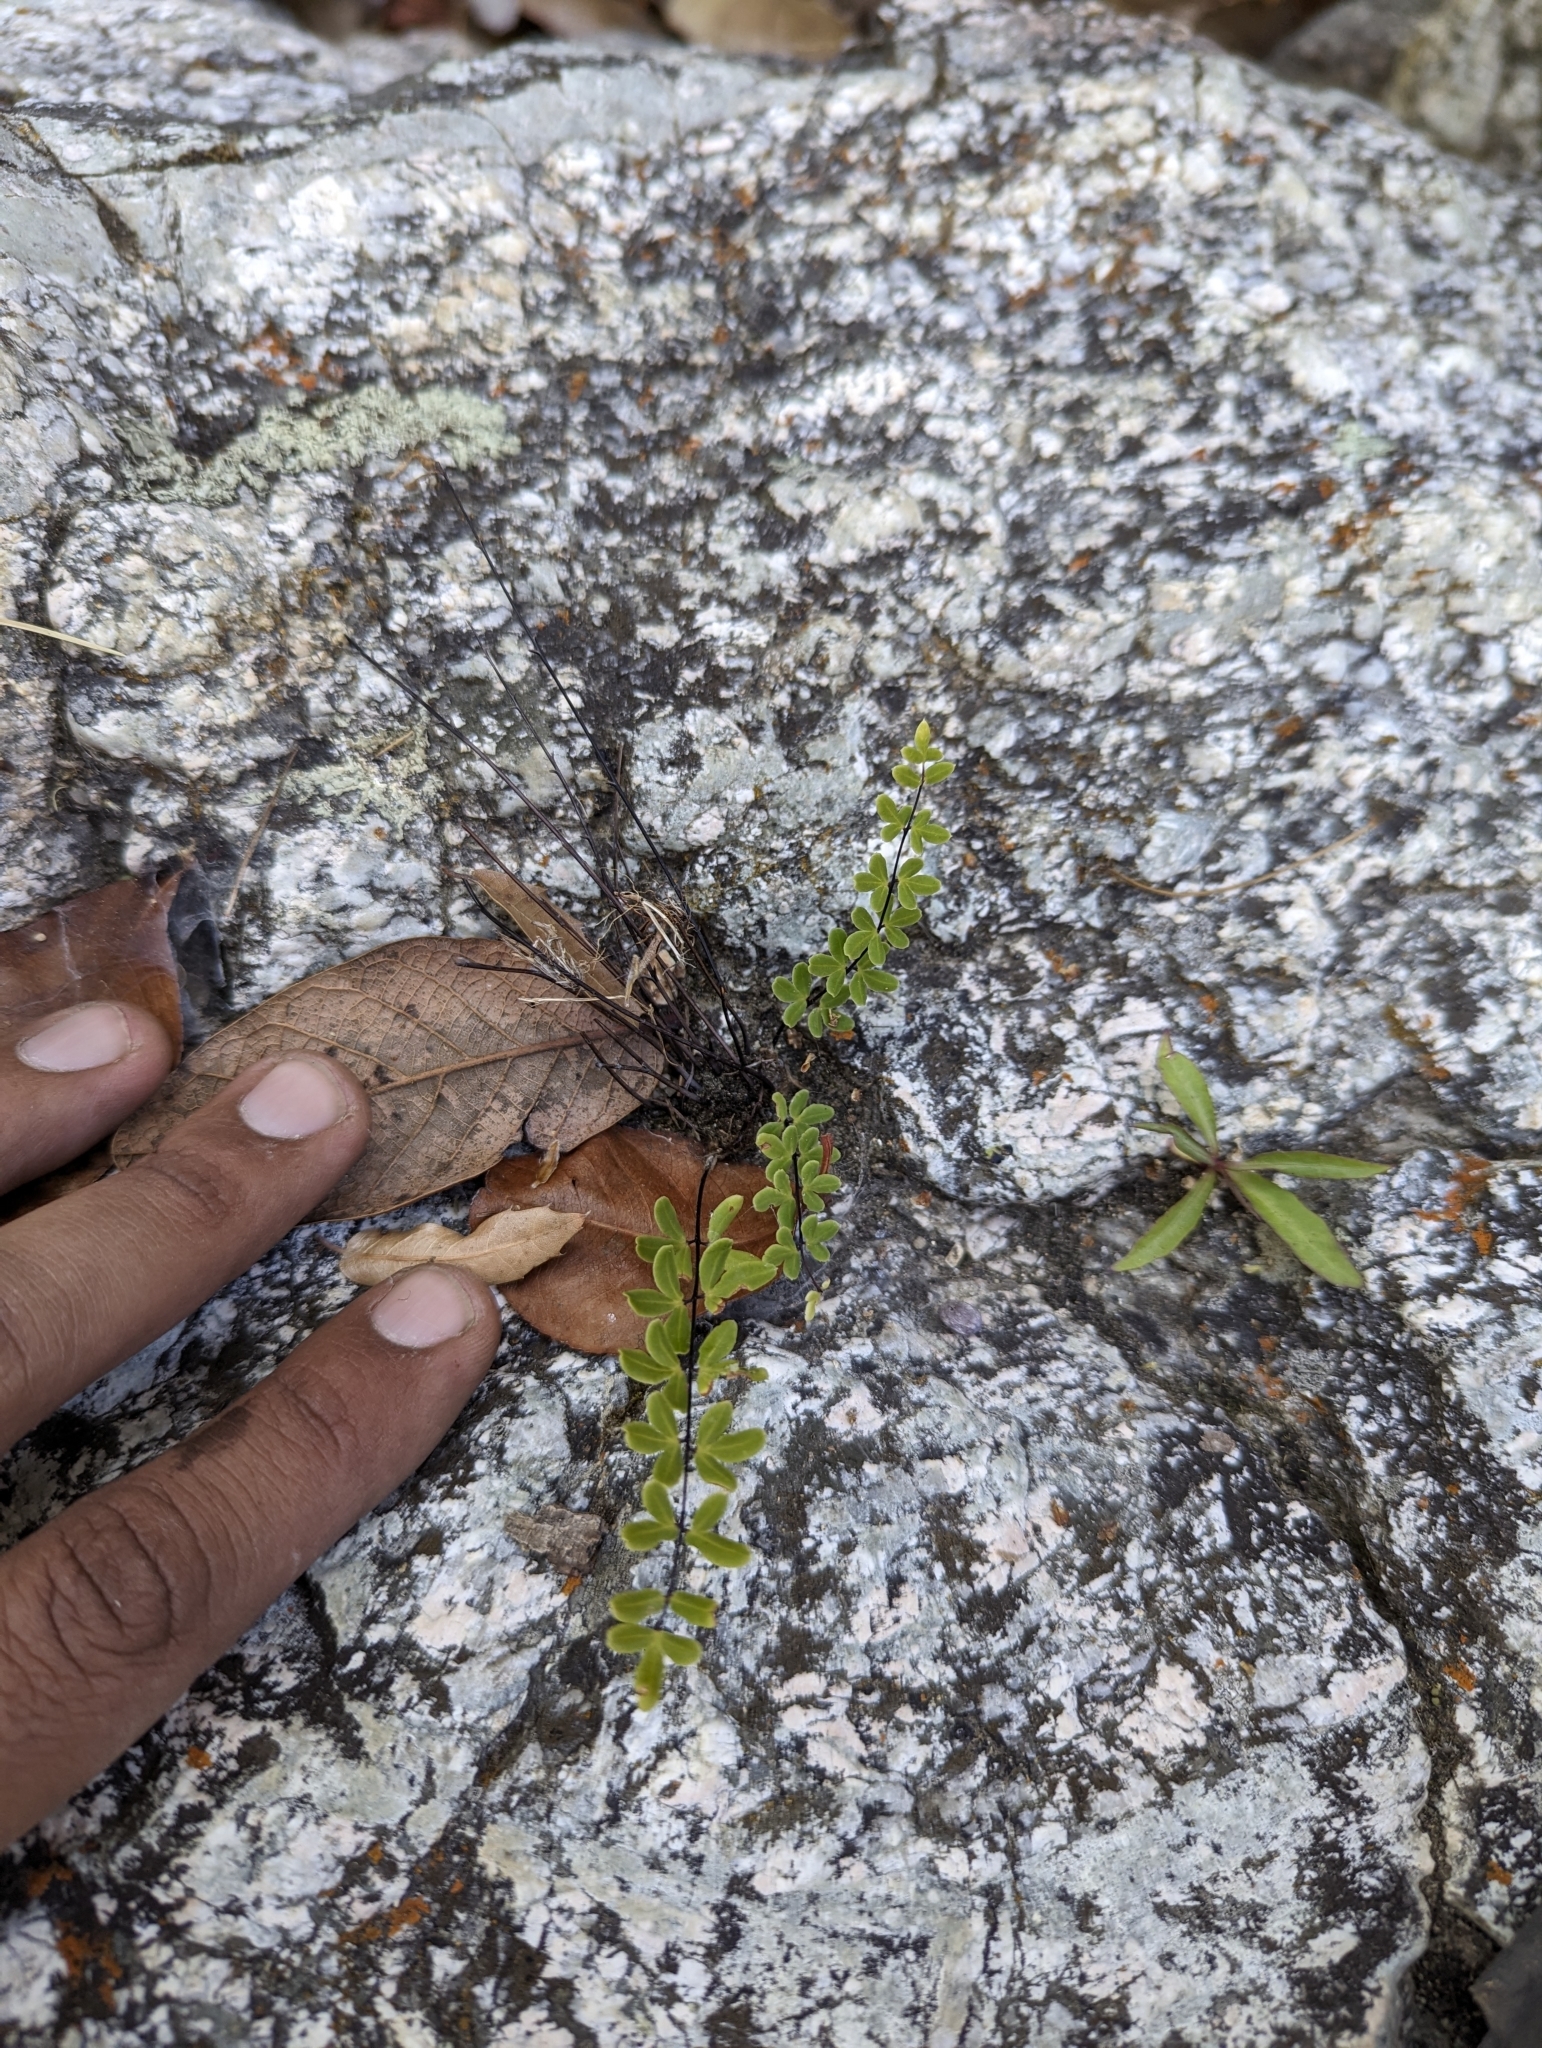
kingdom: Plantae
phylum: Tracheophyta
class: Polypodiopsida
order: Polypodiales
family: Pteridaceae
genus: Pellaea
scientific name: Pellaea ternifolia
